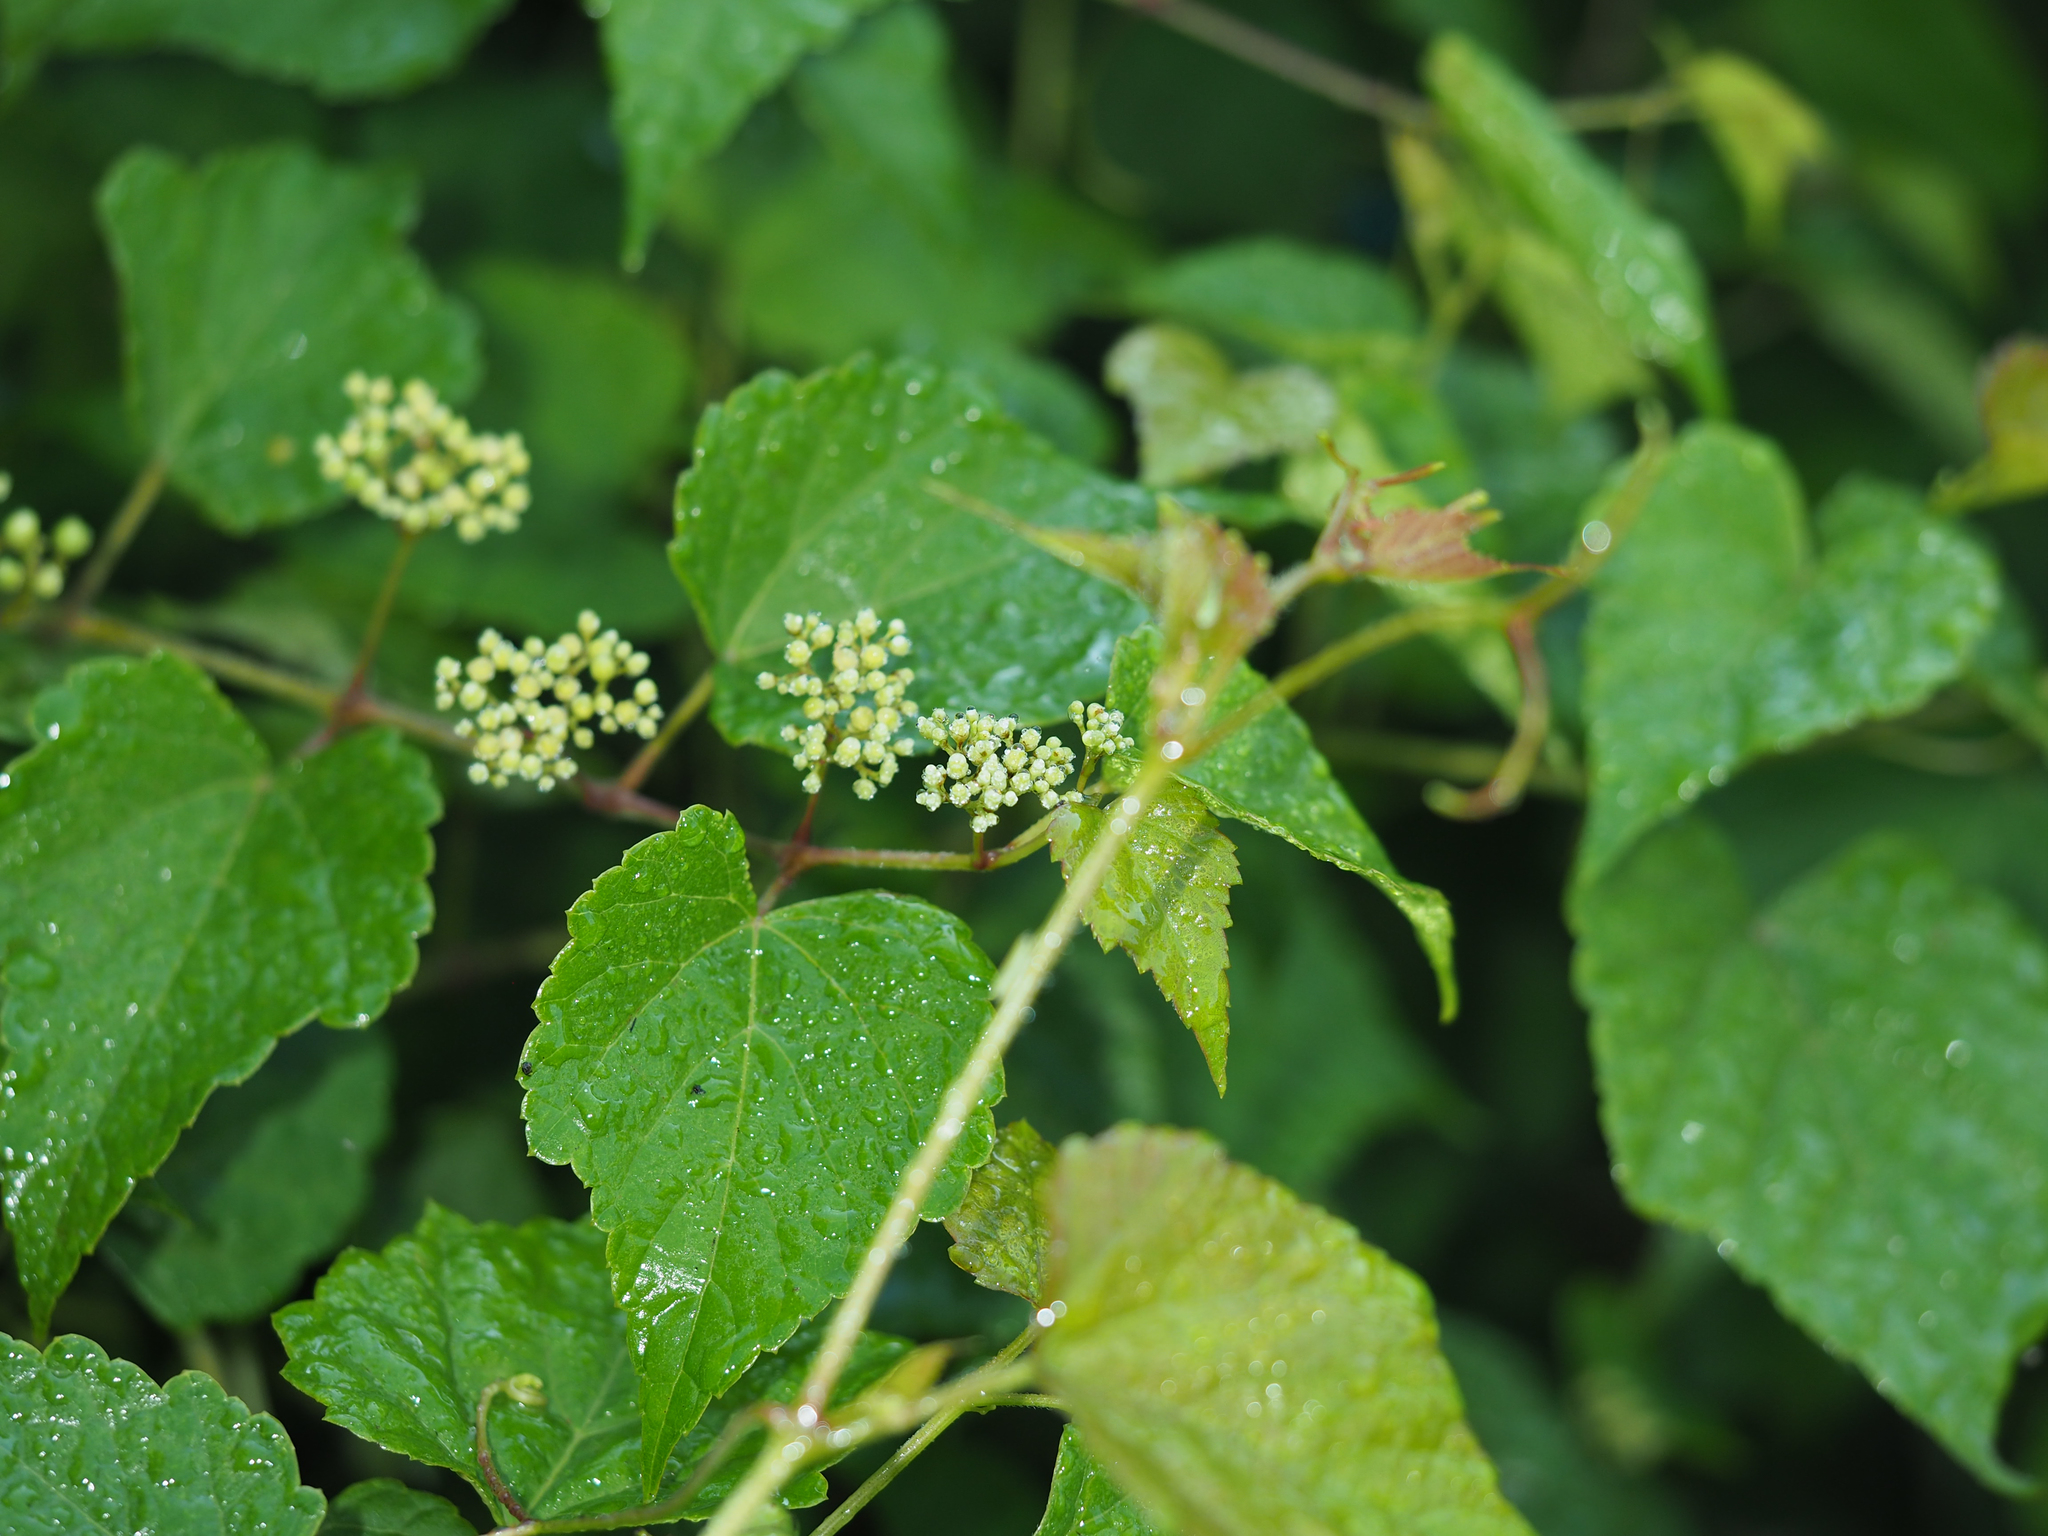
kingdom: Plantae
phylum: Tracheophyta
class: Magnoliopsida
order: Vitales
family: Vitaceae
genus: Ampelopsis
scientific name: Ampelopsis glandulosa
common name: Amur peppervine
